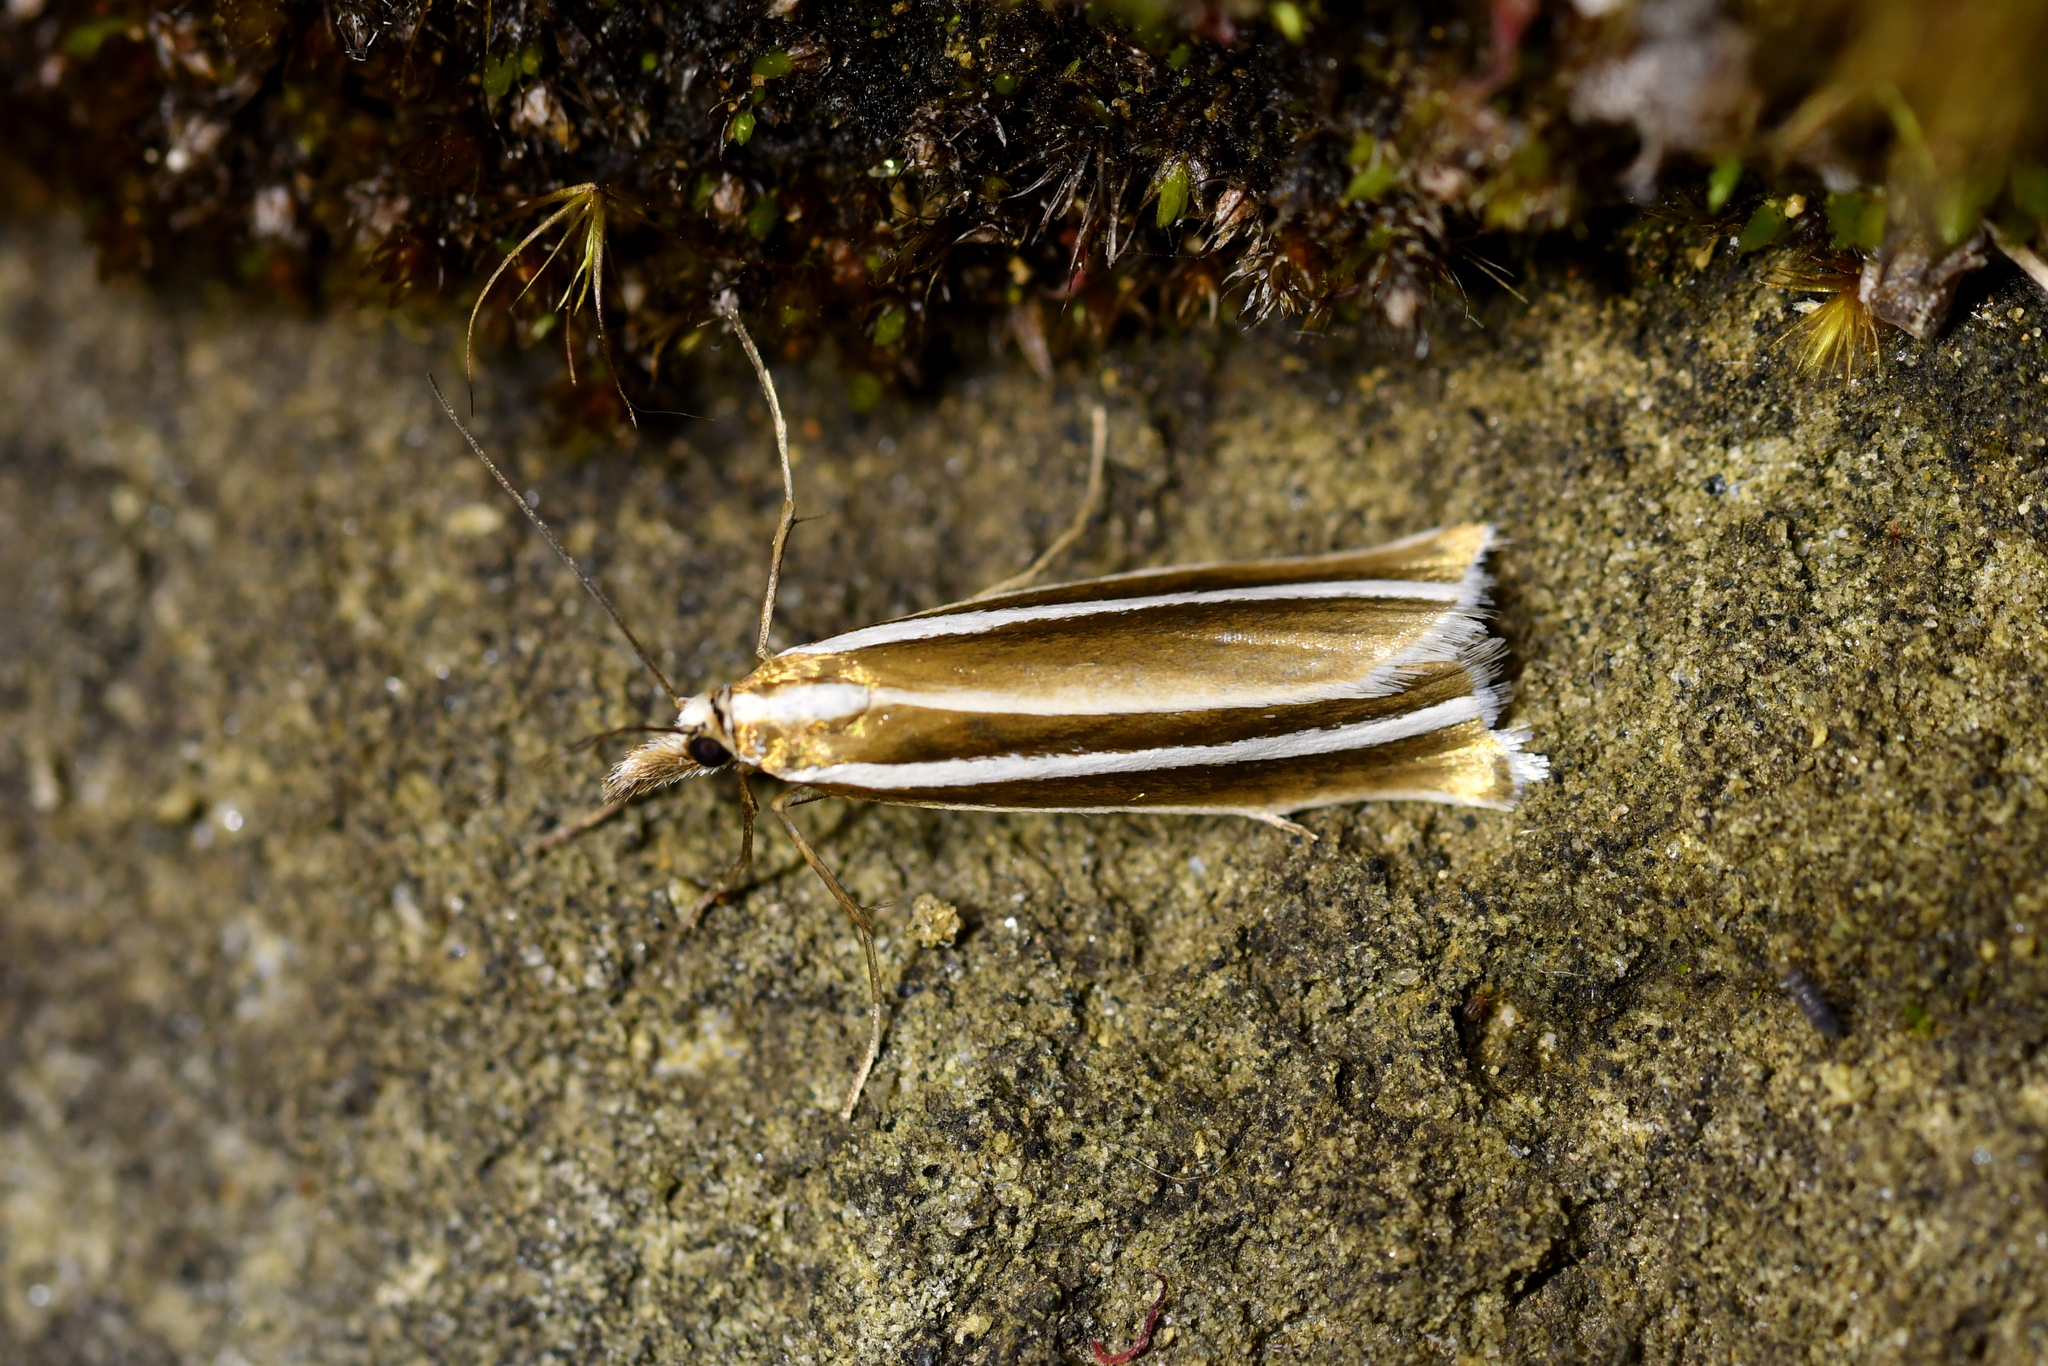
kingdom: Animalia
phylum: Arthropoda
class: Insecta
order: Lepidoptera
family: Crambidae
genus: Orocrambus
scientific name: Orocrambus philpotti
